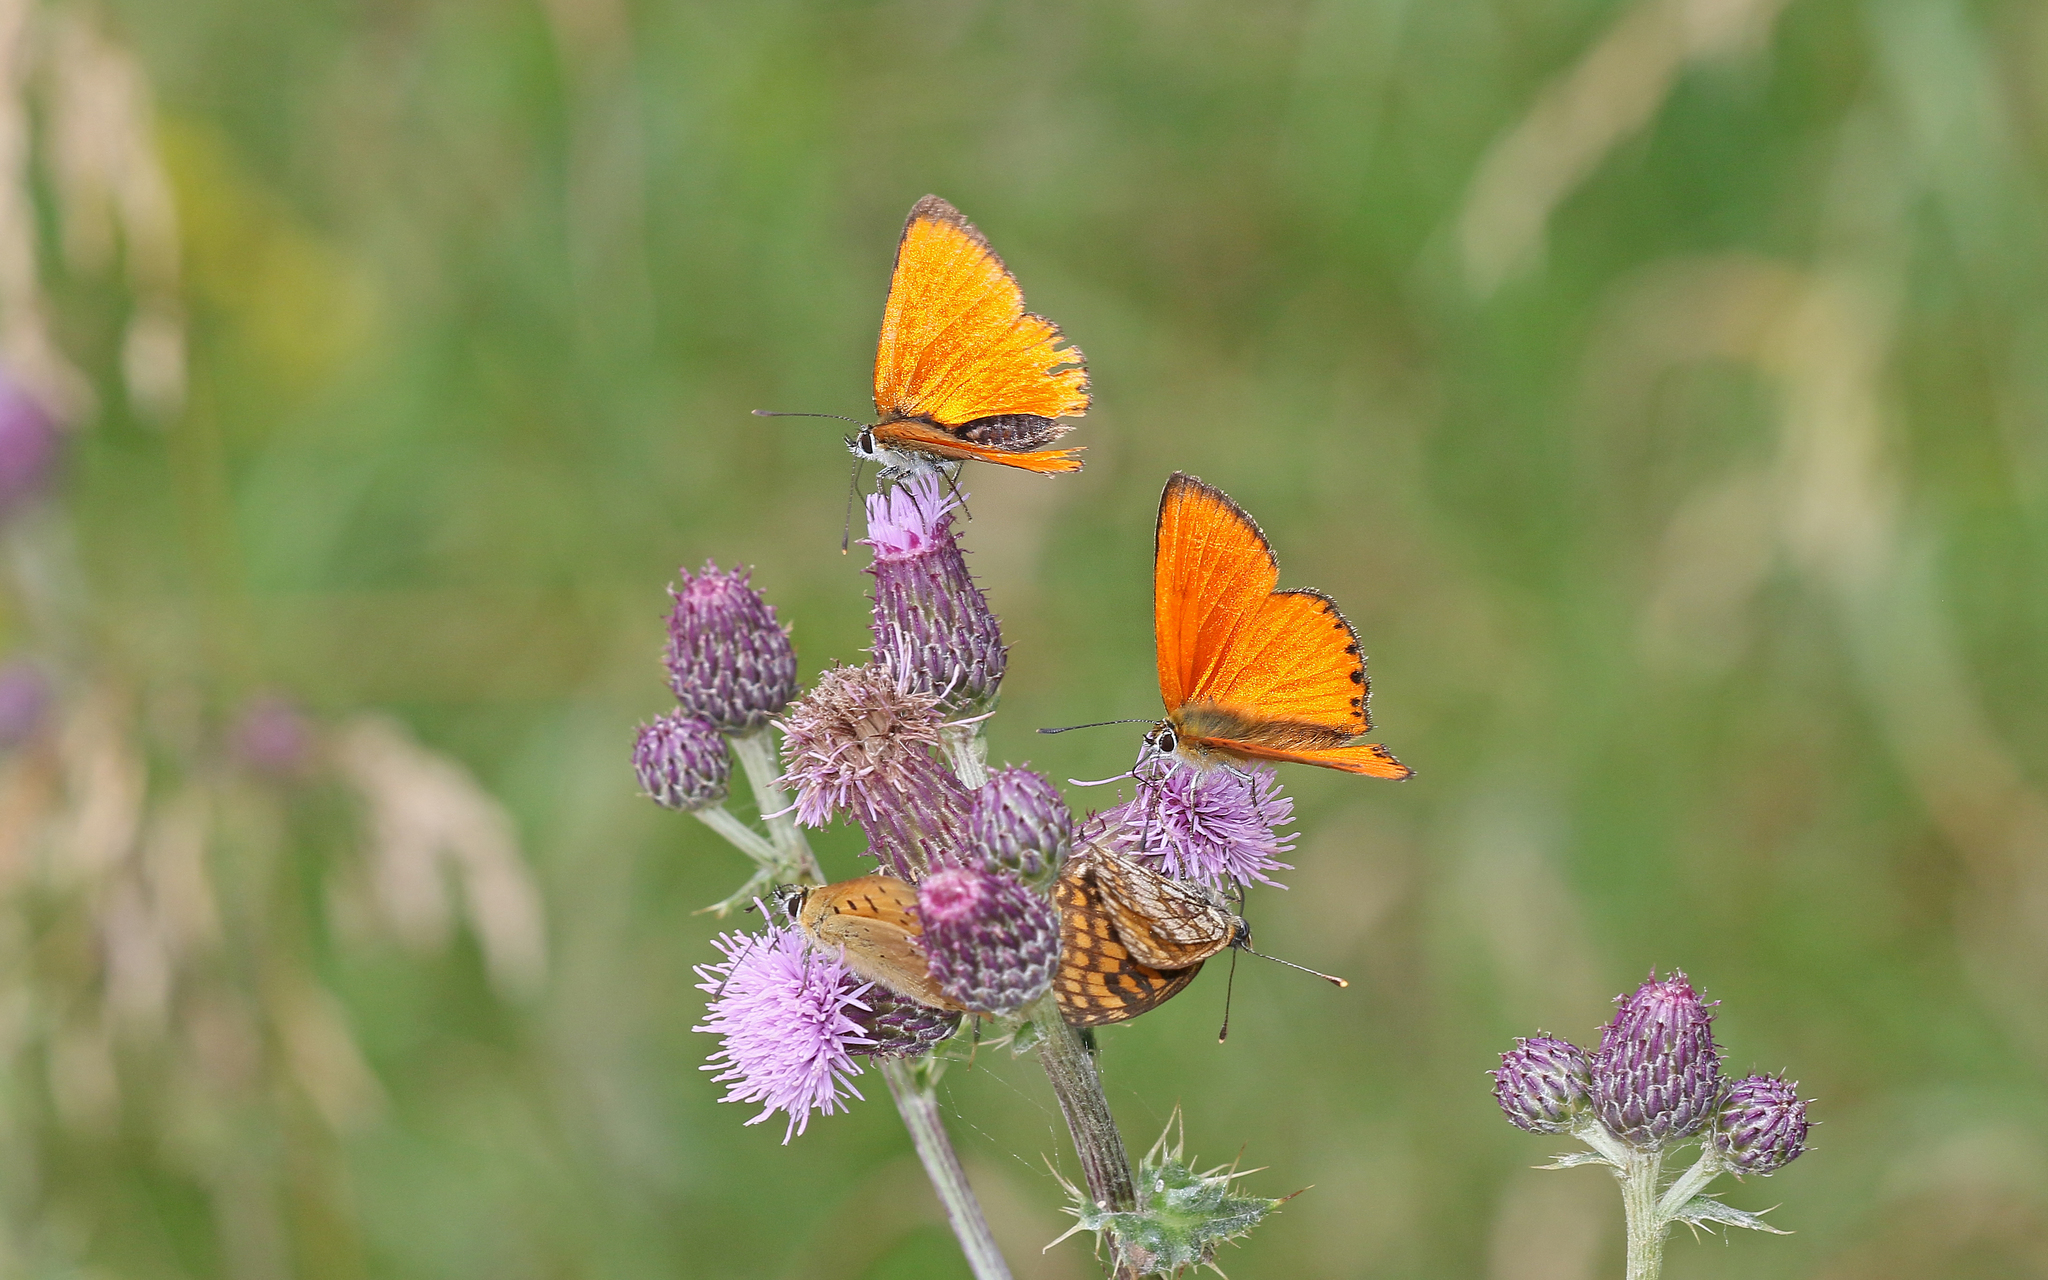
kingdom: Animalia
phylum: Arthropoda
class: Insecta
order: Lepidoptera
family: Lycaenidae
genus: Lycaena
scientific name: Lycaena virgaureae
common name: Scarce copper
